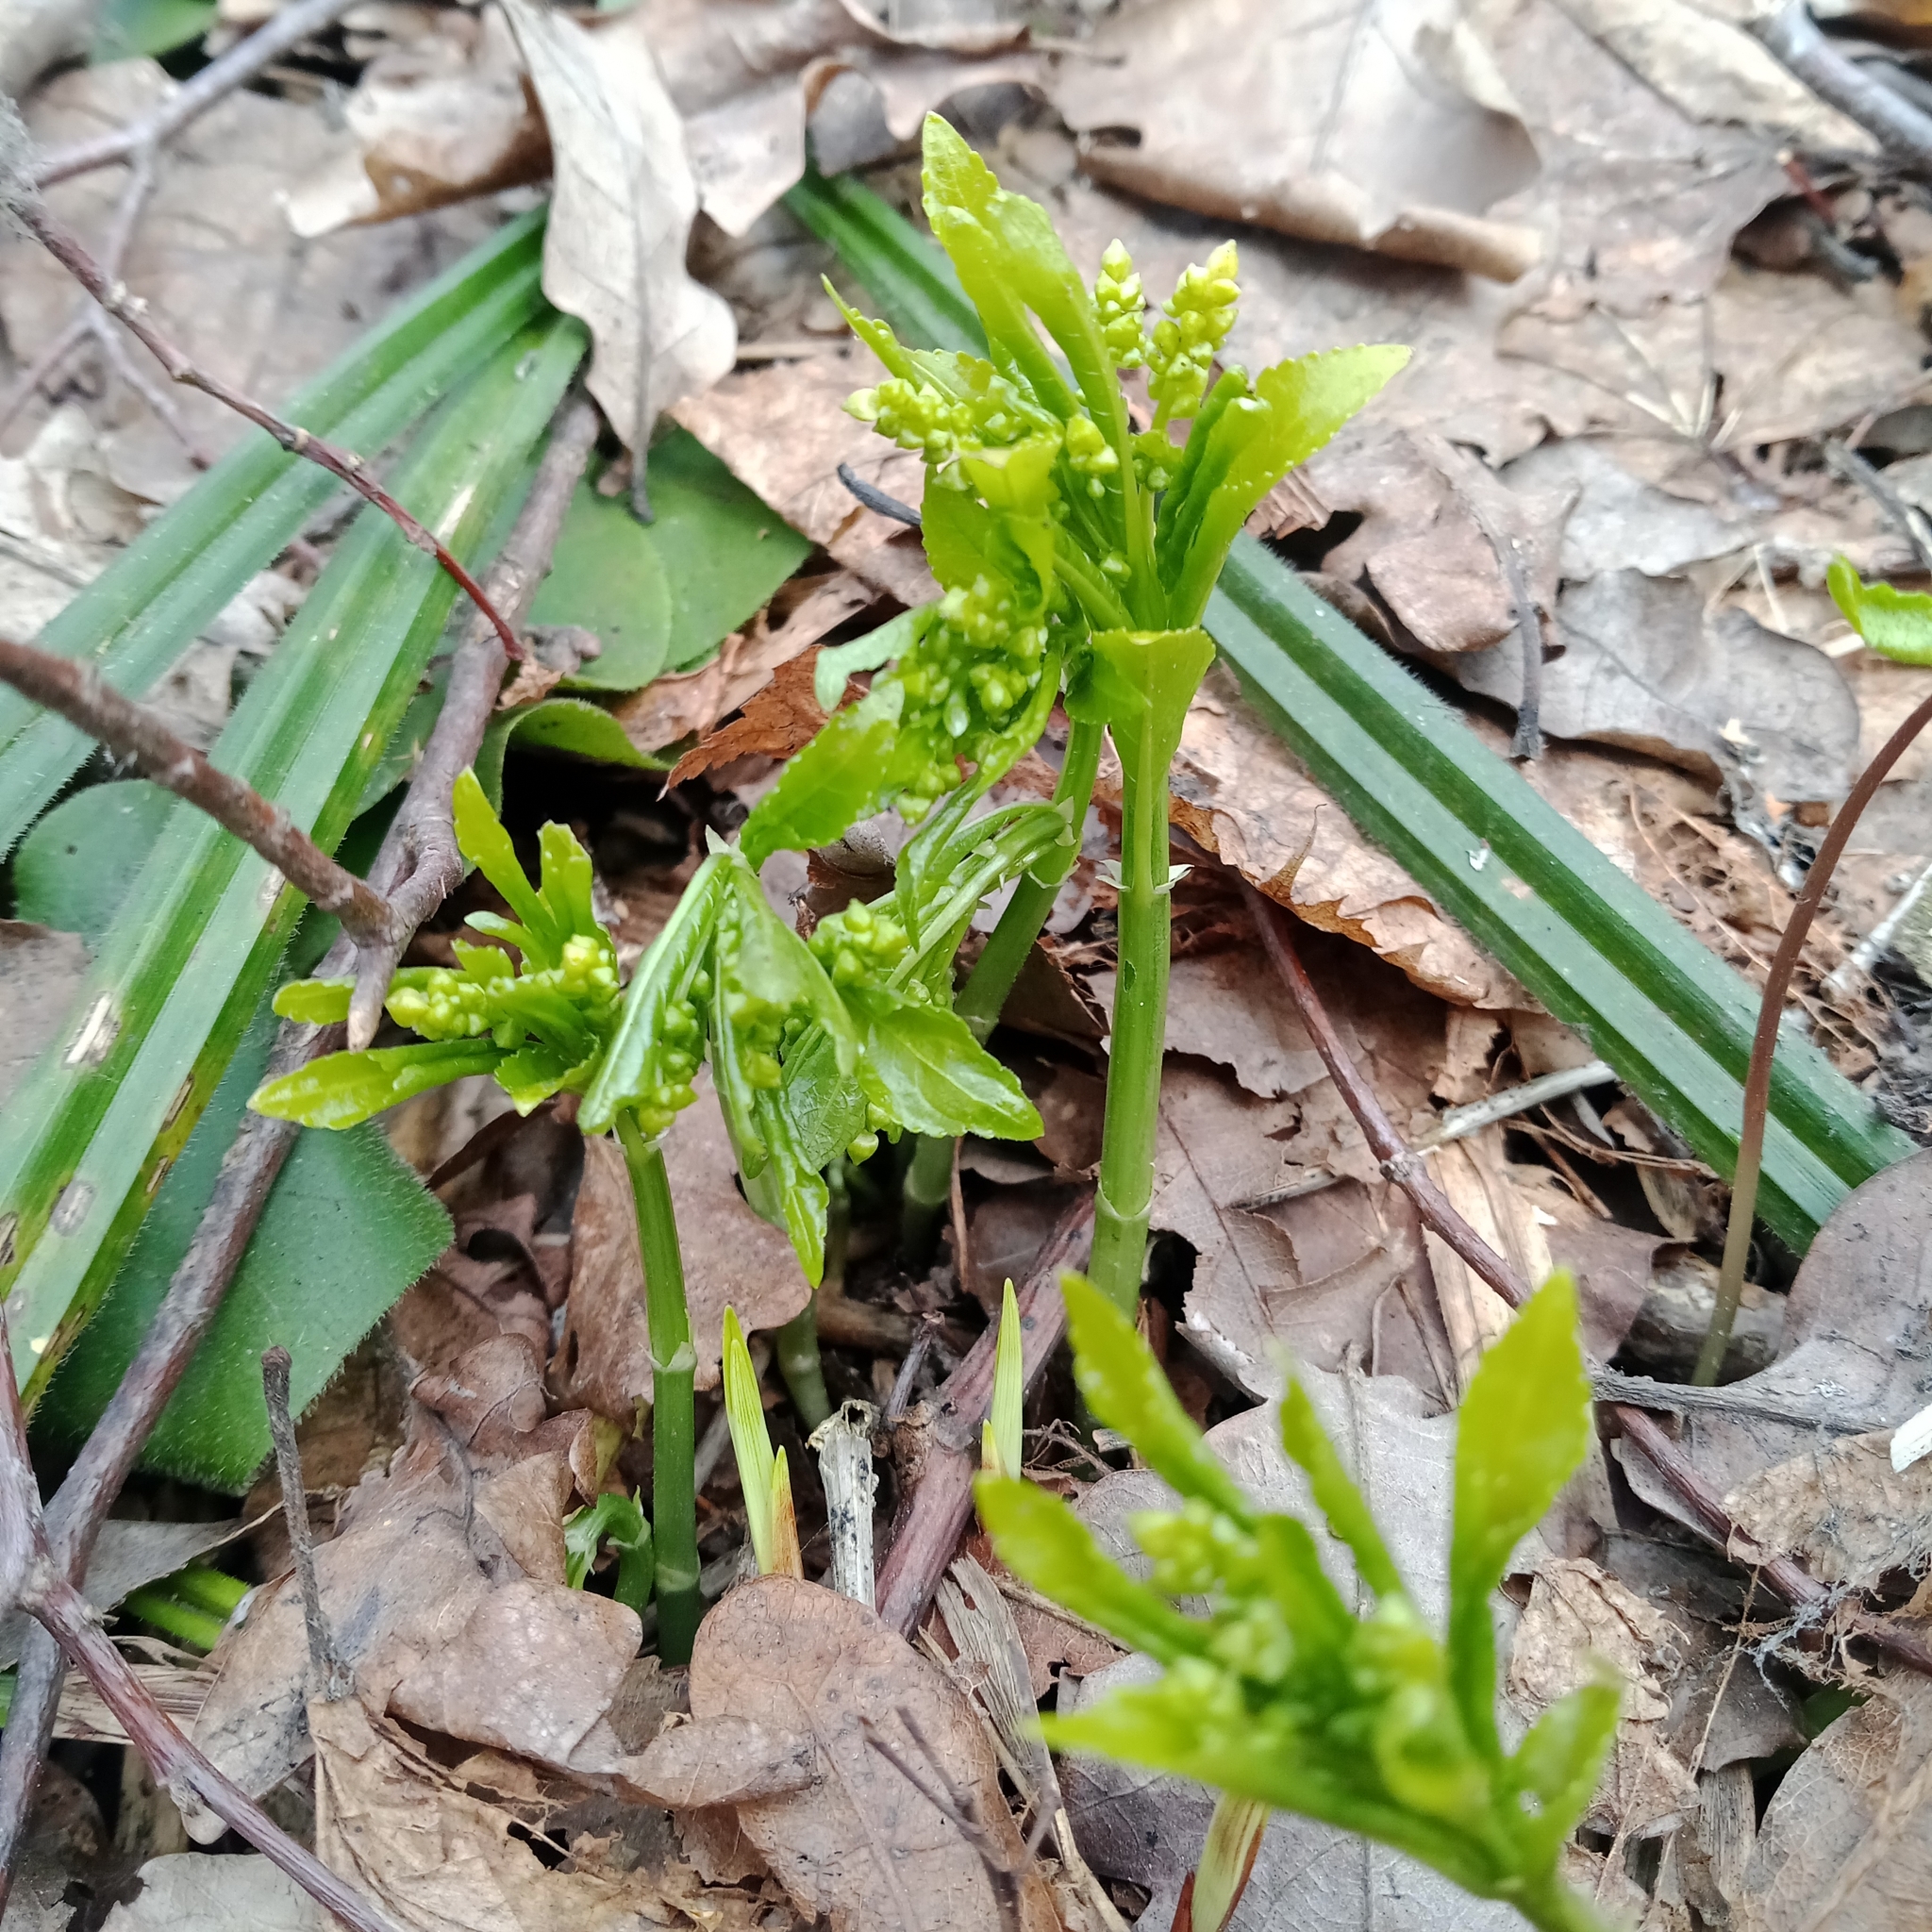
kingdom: Plantae
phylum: Tracheophyta
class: Magnoliopsida
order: Malpighiales
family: Euphorbiaceae
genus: Mercurialis
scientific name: Mercurialis perennis
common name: Dog mercury
